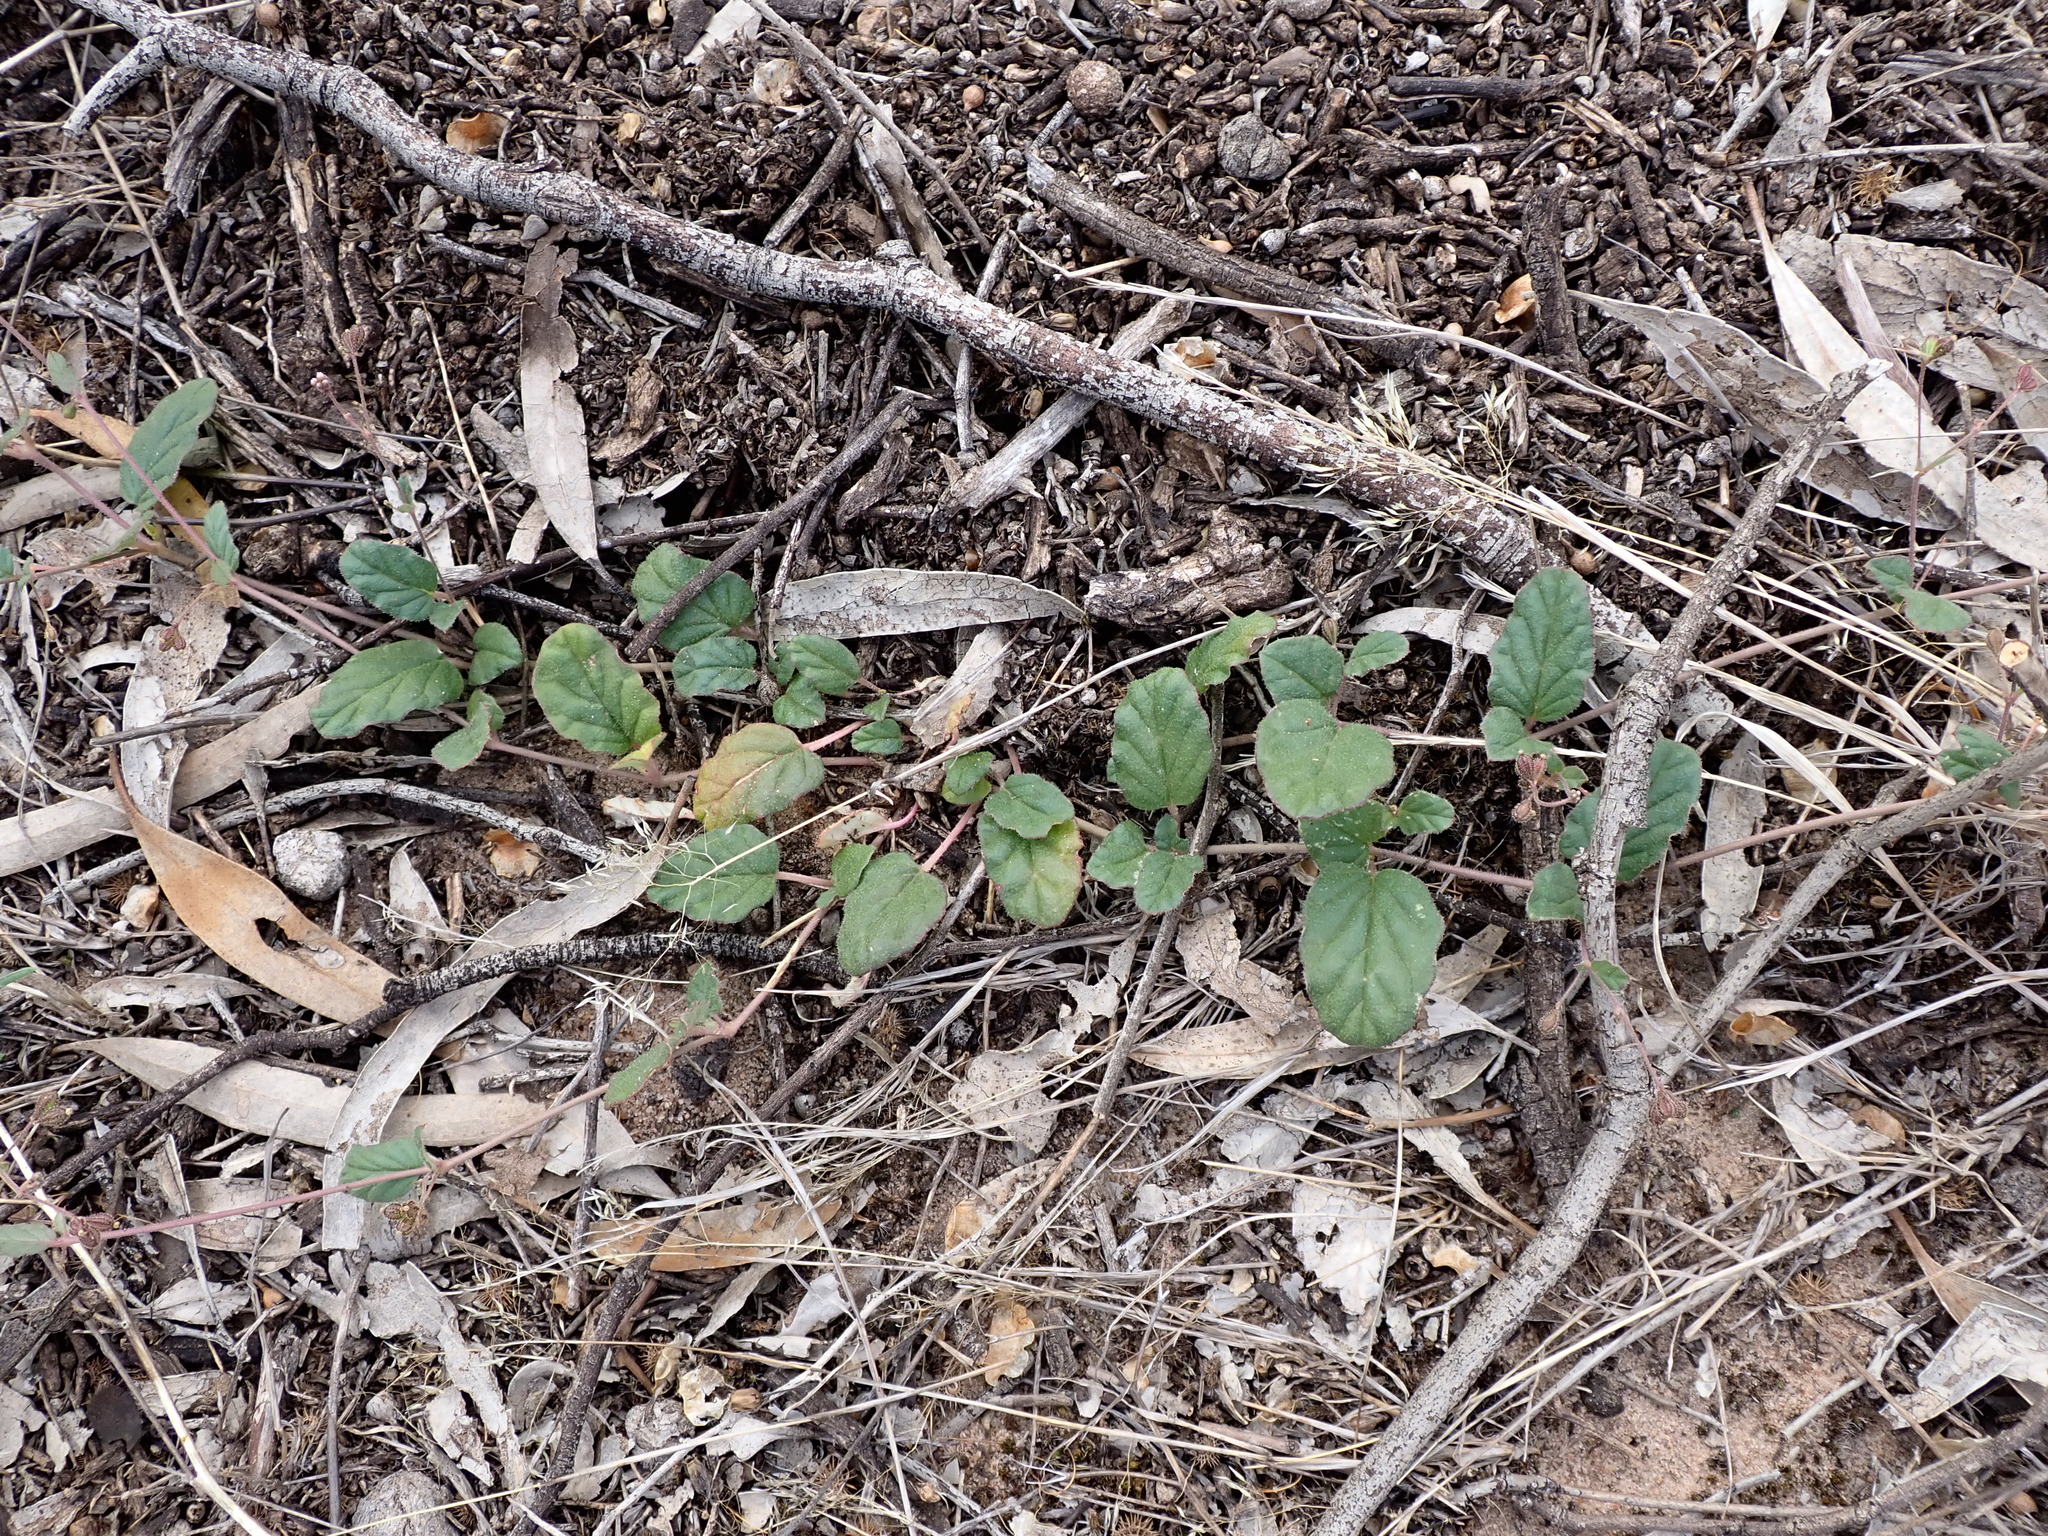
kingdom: Plantae
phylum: Tracheophyta
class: Magnoliopsida
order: Caryophyllales
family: Nyctaginaceae
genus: Boerhavia
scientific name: Boerhavia dominii
